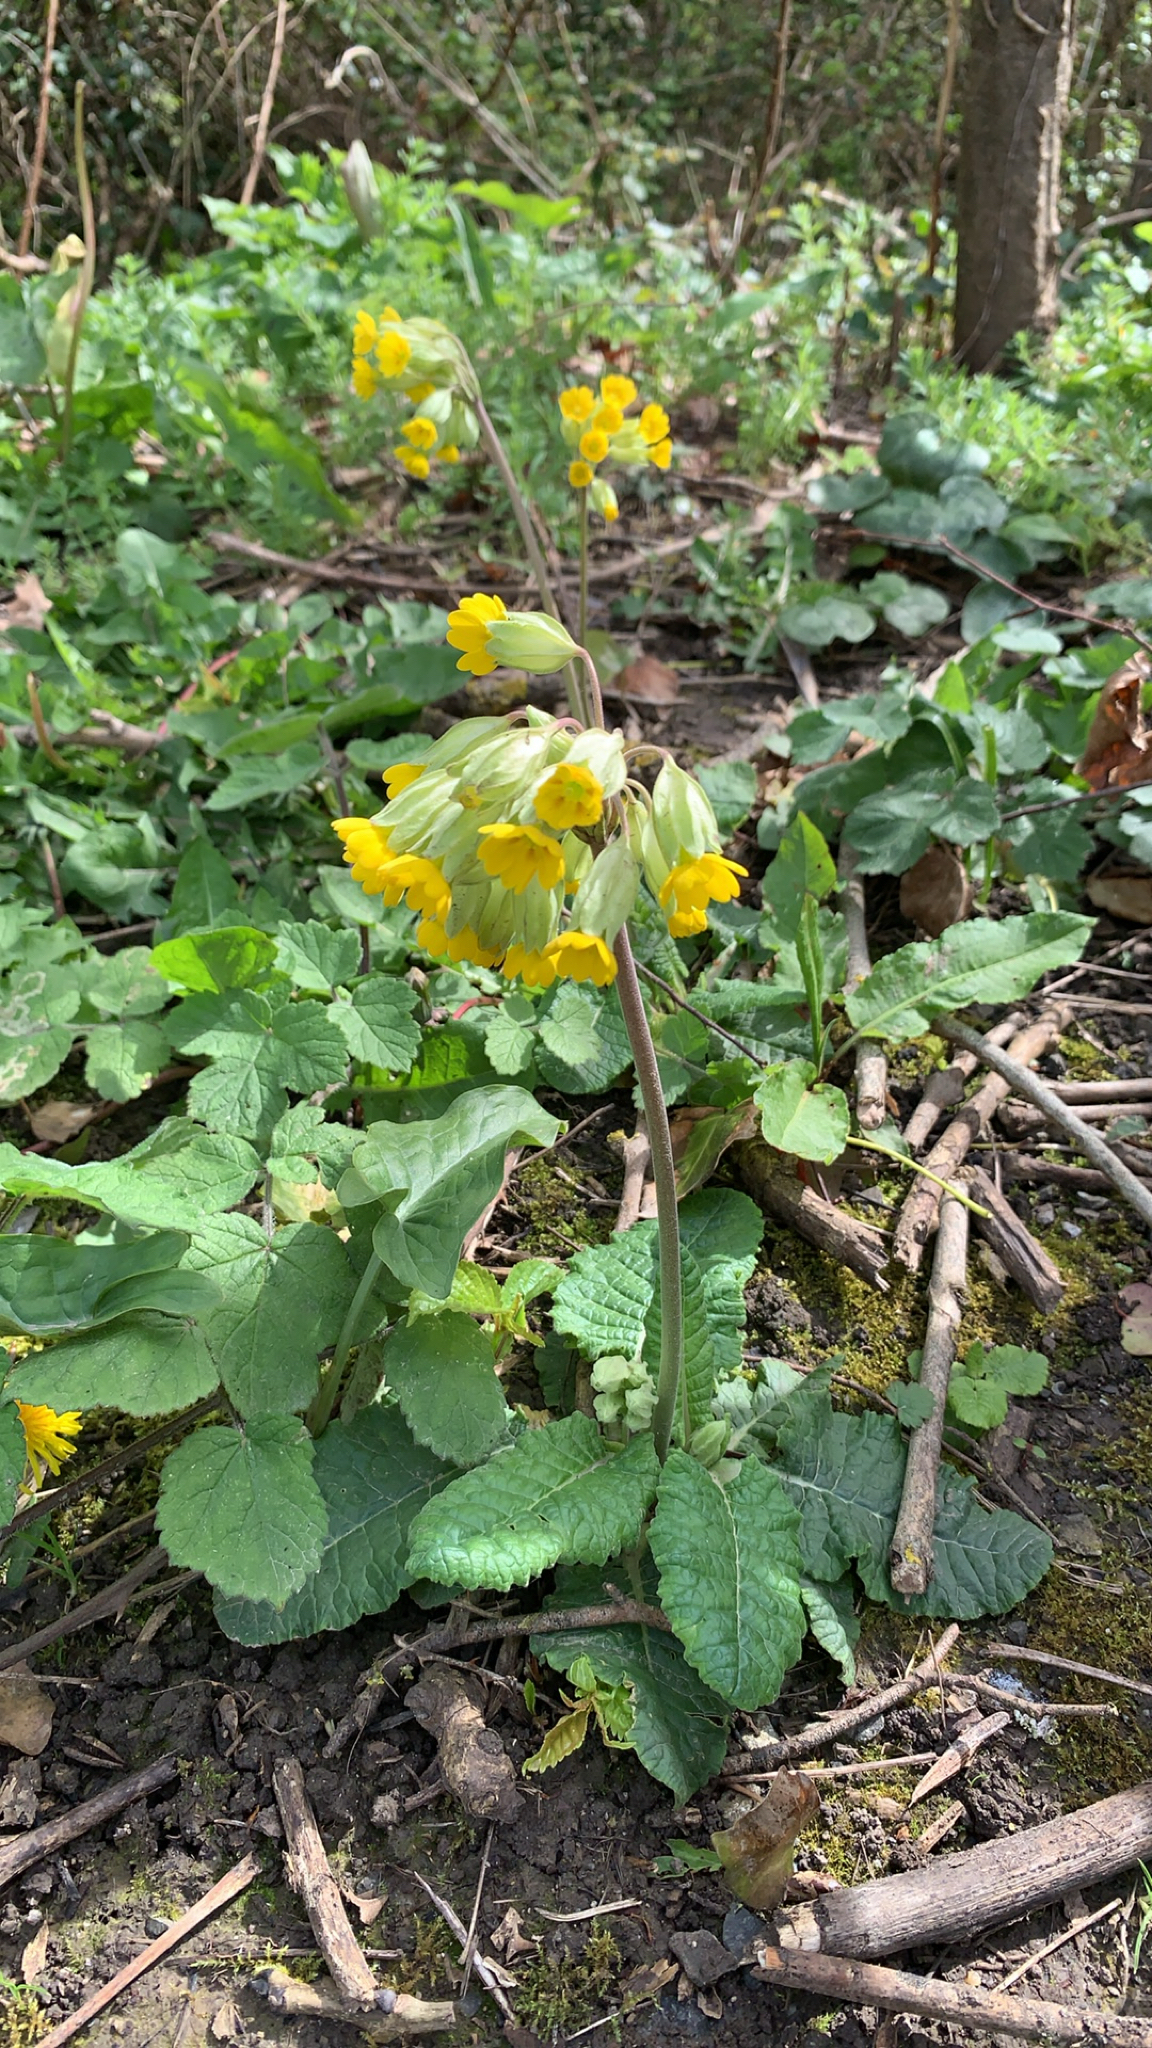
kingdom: Plantae
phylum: Tracheophyta
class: Magnoliopsida
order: Ericales
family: Primulaceae
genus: Primula
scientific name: Primula veris
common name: Cowslip
